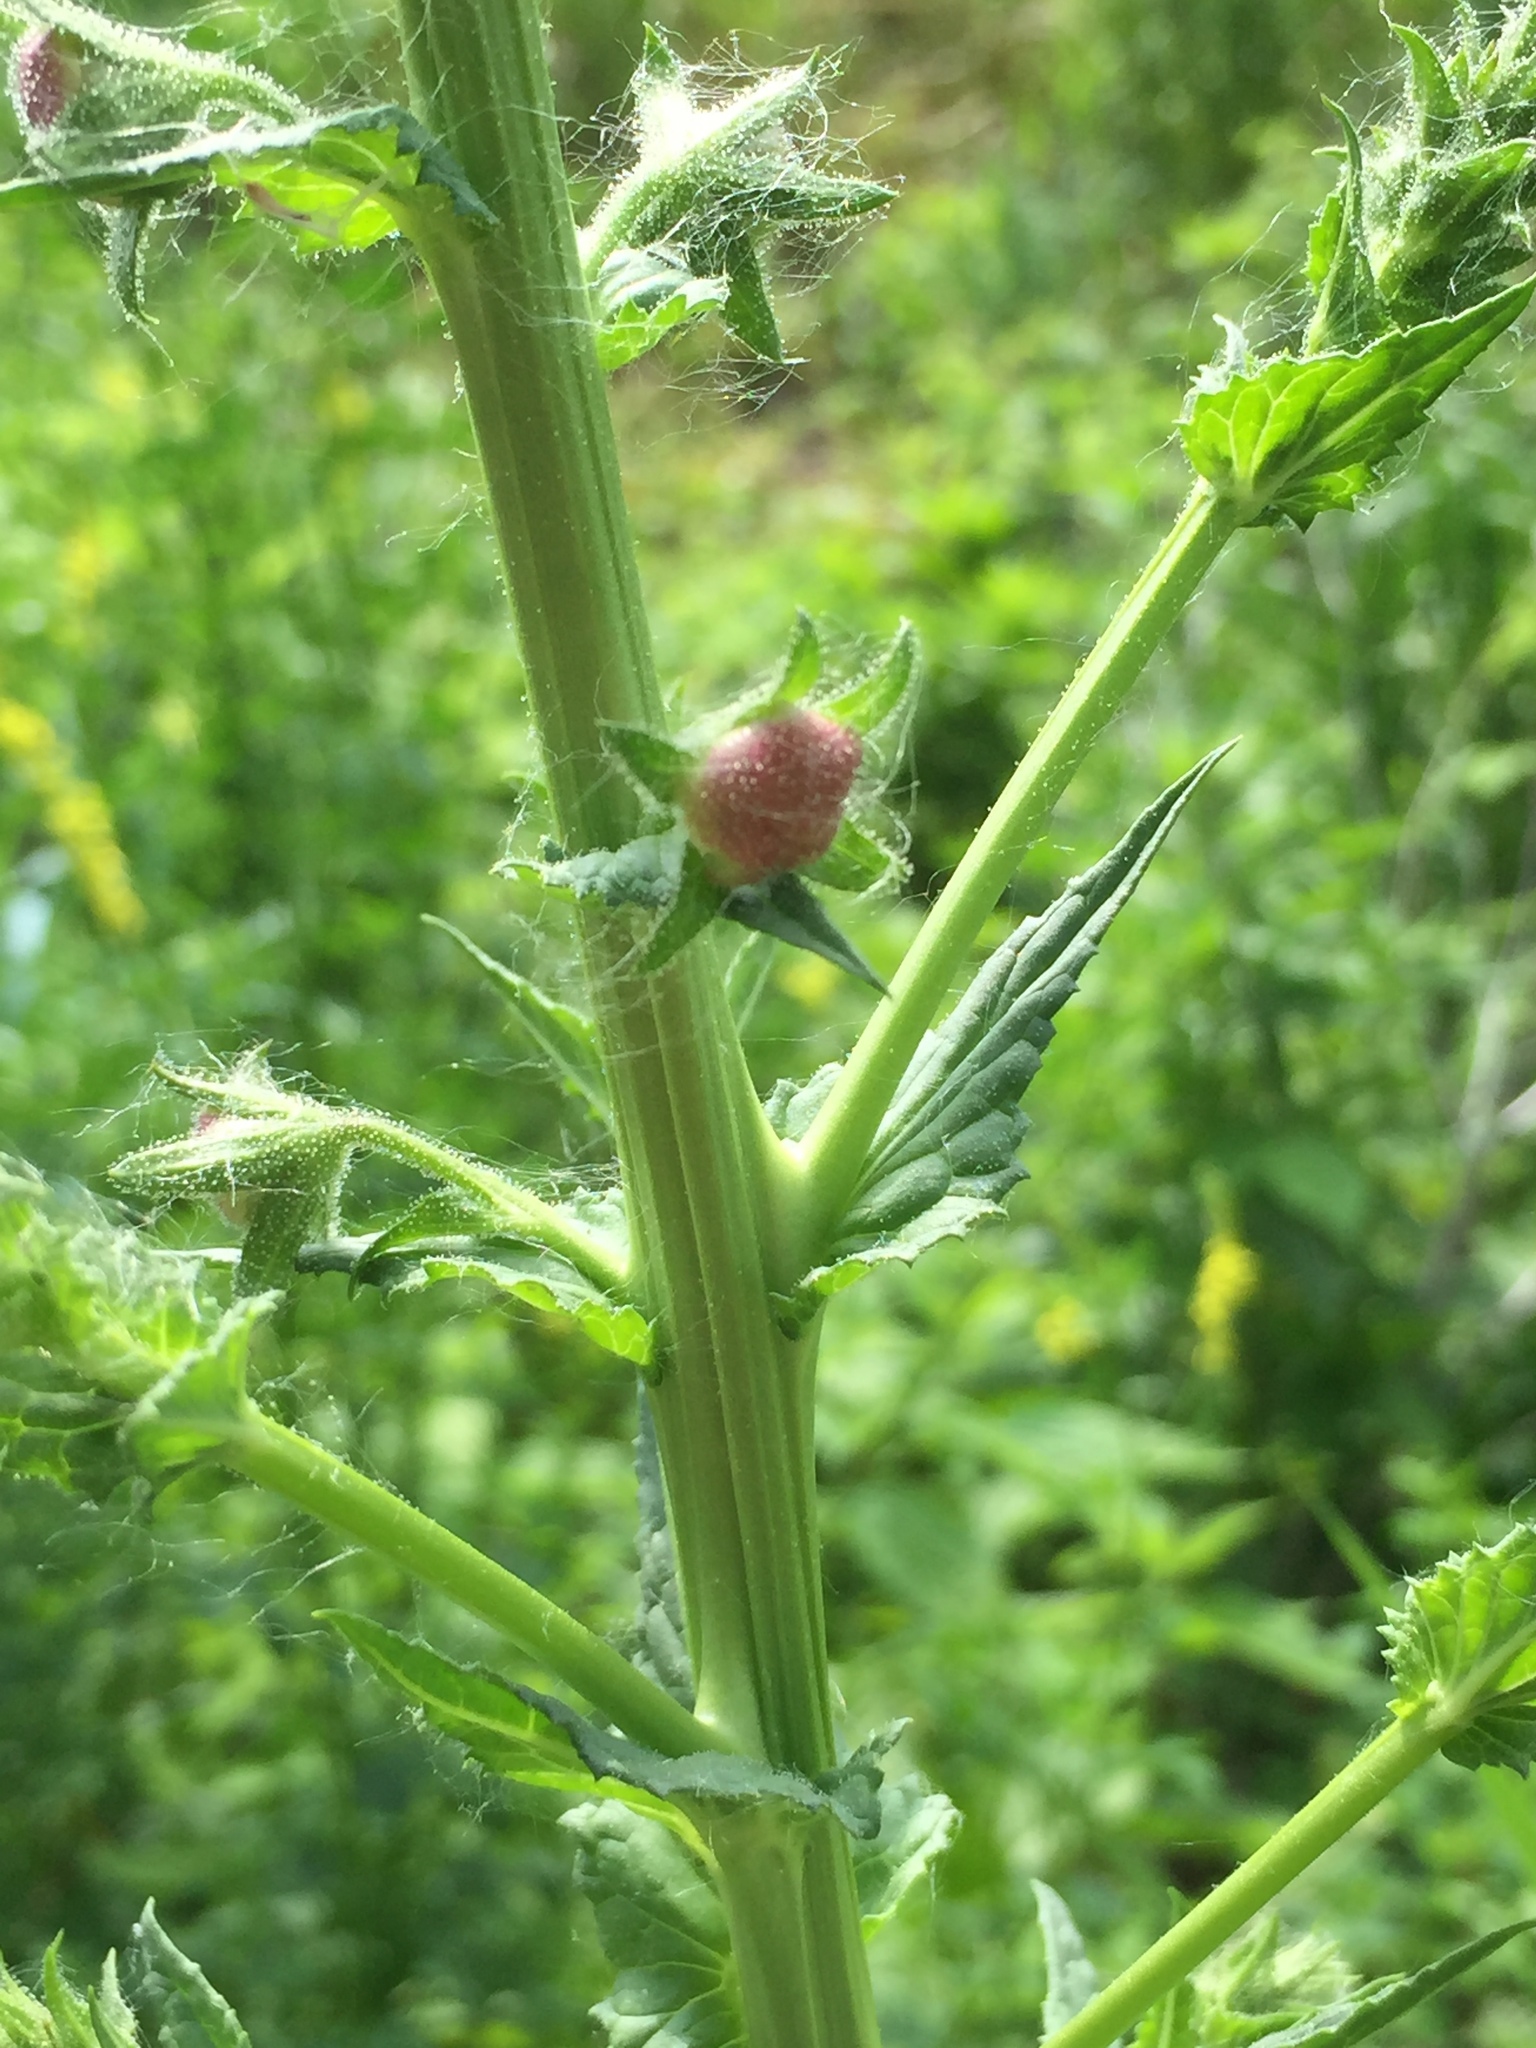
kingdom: Plantae
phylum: Tracheophyta
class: Magnoliopsida
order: Lamiales
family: Scrophulariaceae
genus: Verbascum
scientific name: Verbascum blattaria
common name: Moth mullein
